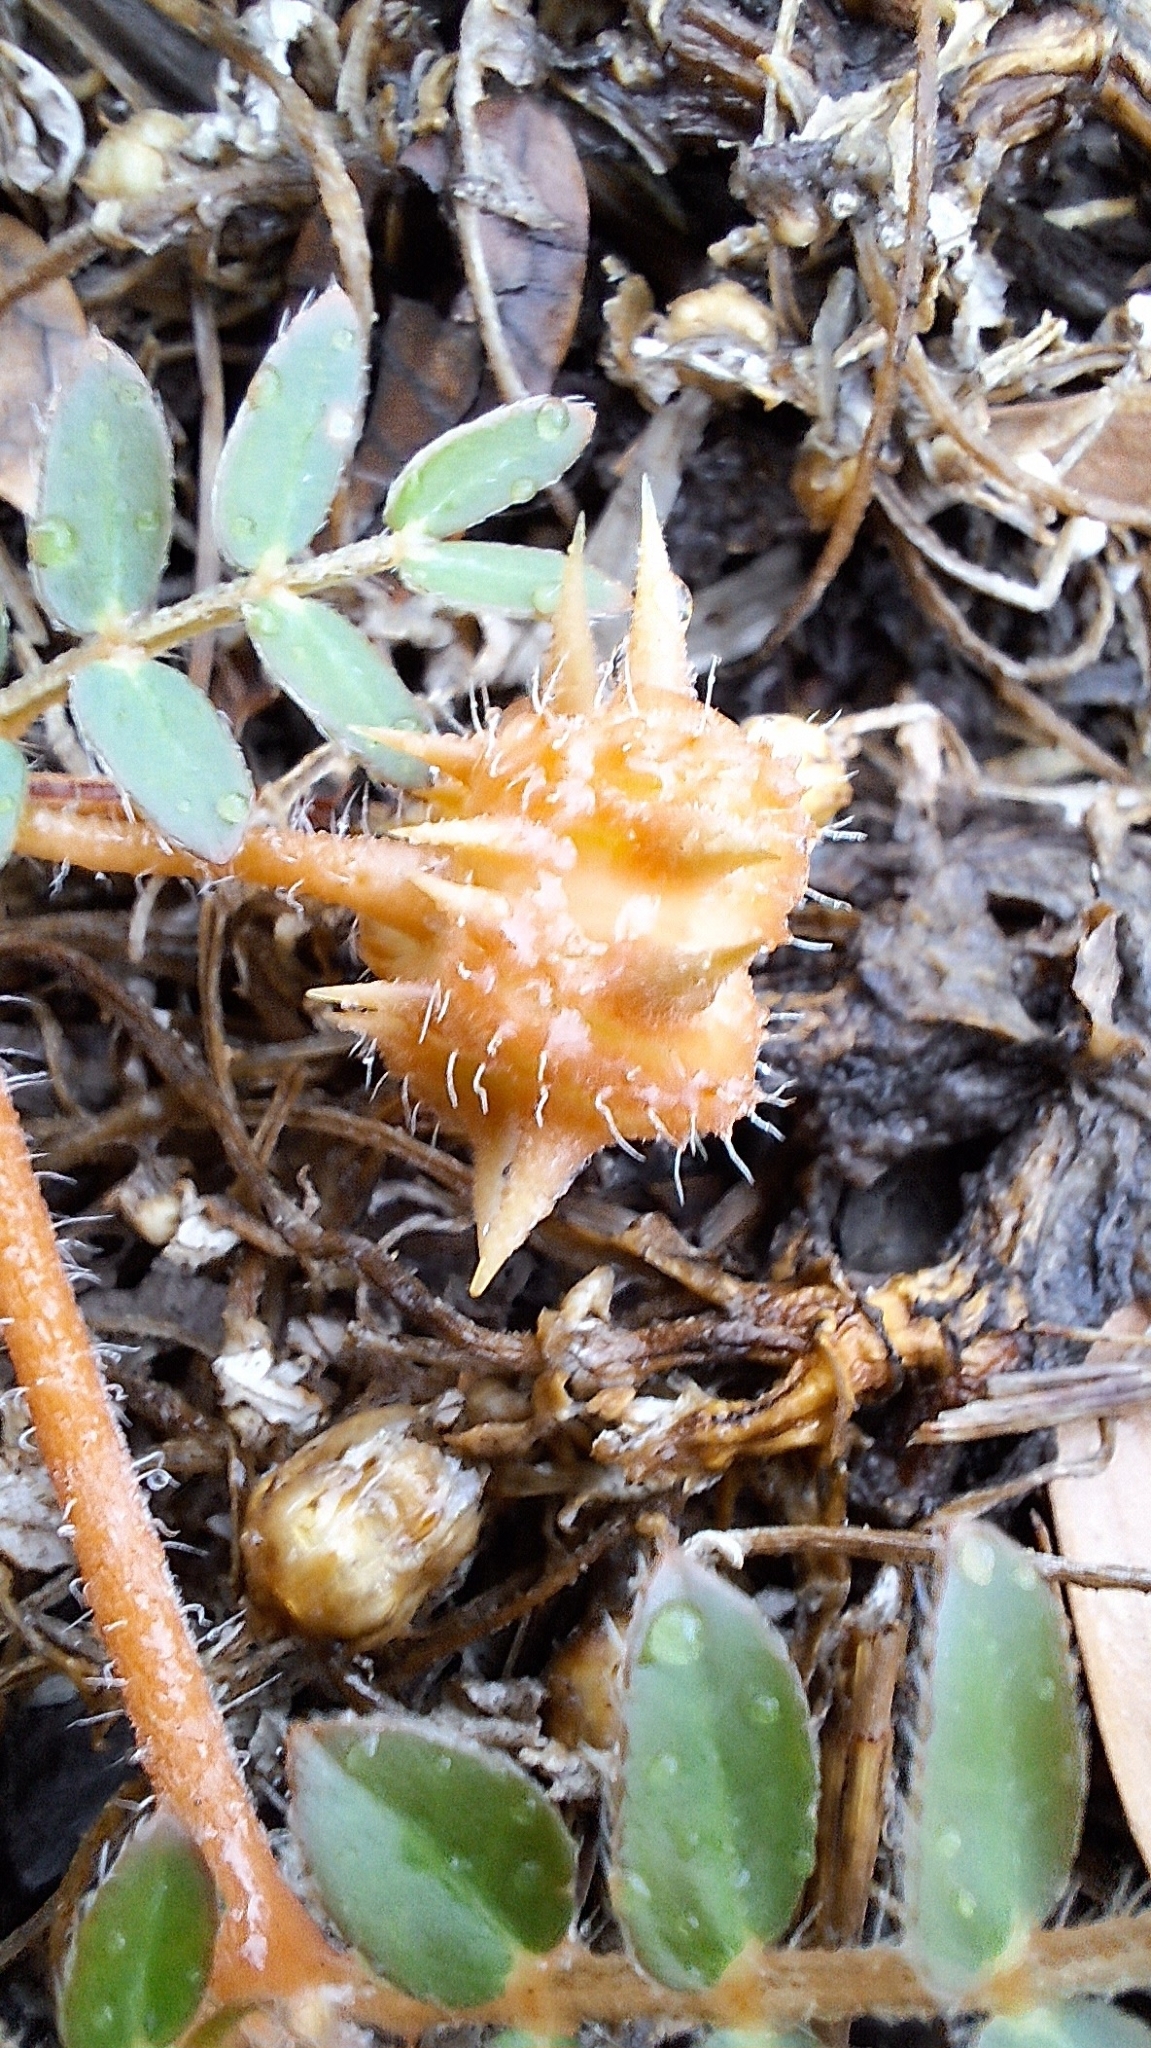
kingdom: Plantae
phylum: Tracheophyta
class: Magnoliopsida
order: Zygophyllales
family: Zygophyllaceae
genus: Tribulus
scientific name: Tribulus terrestris
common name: Puncturevine
